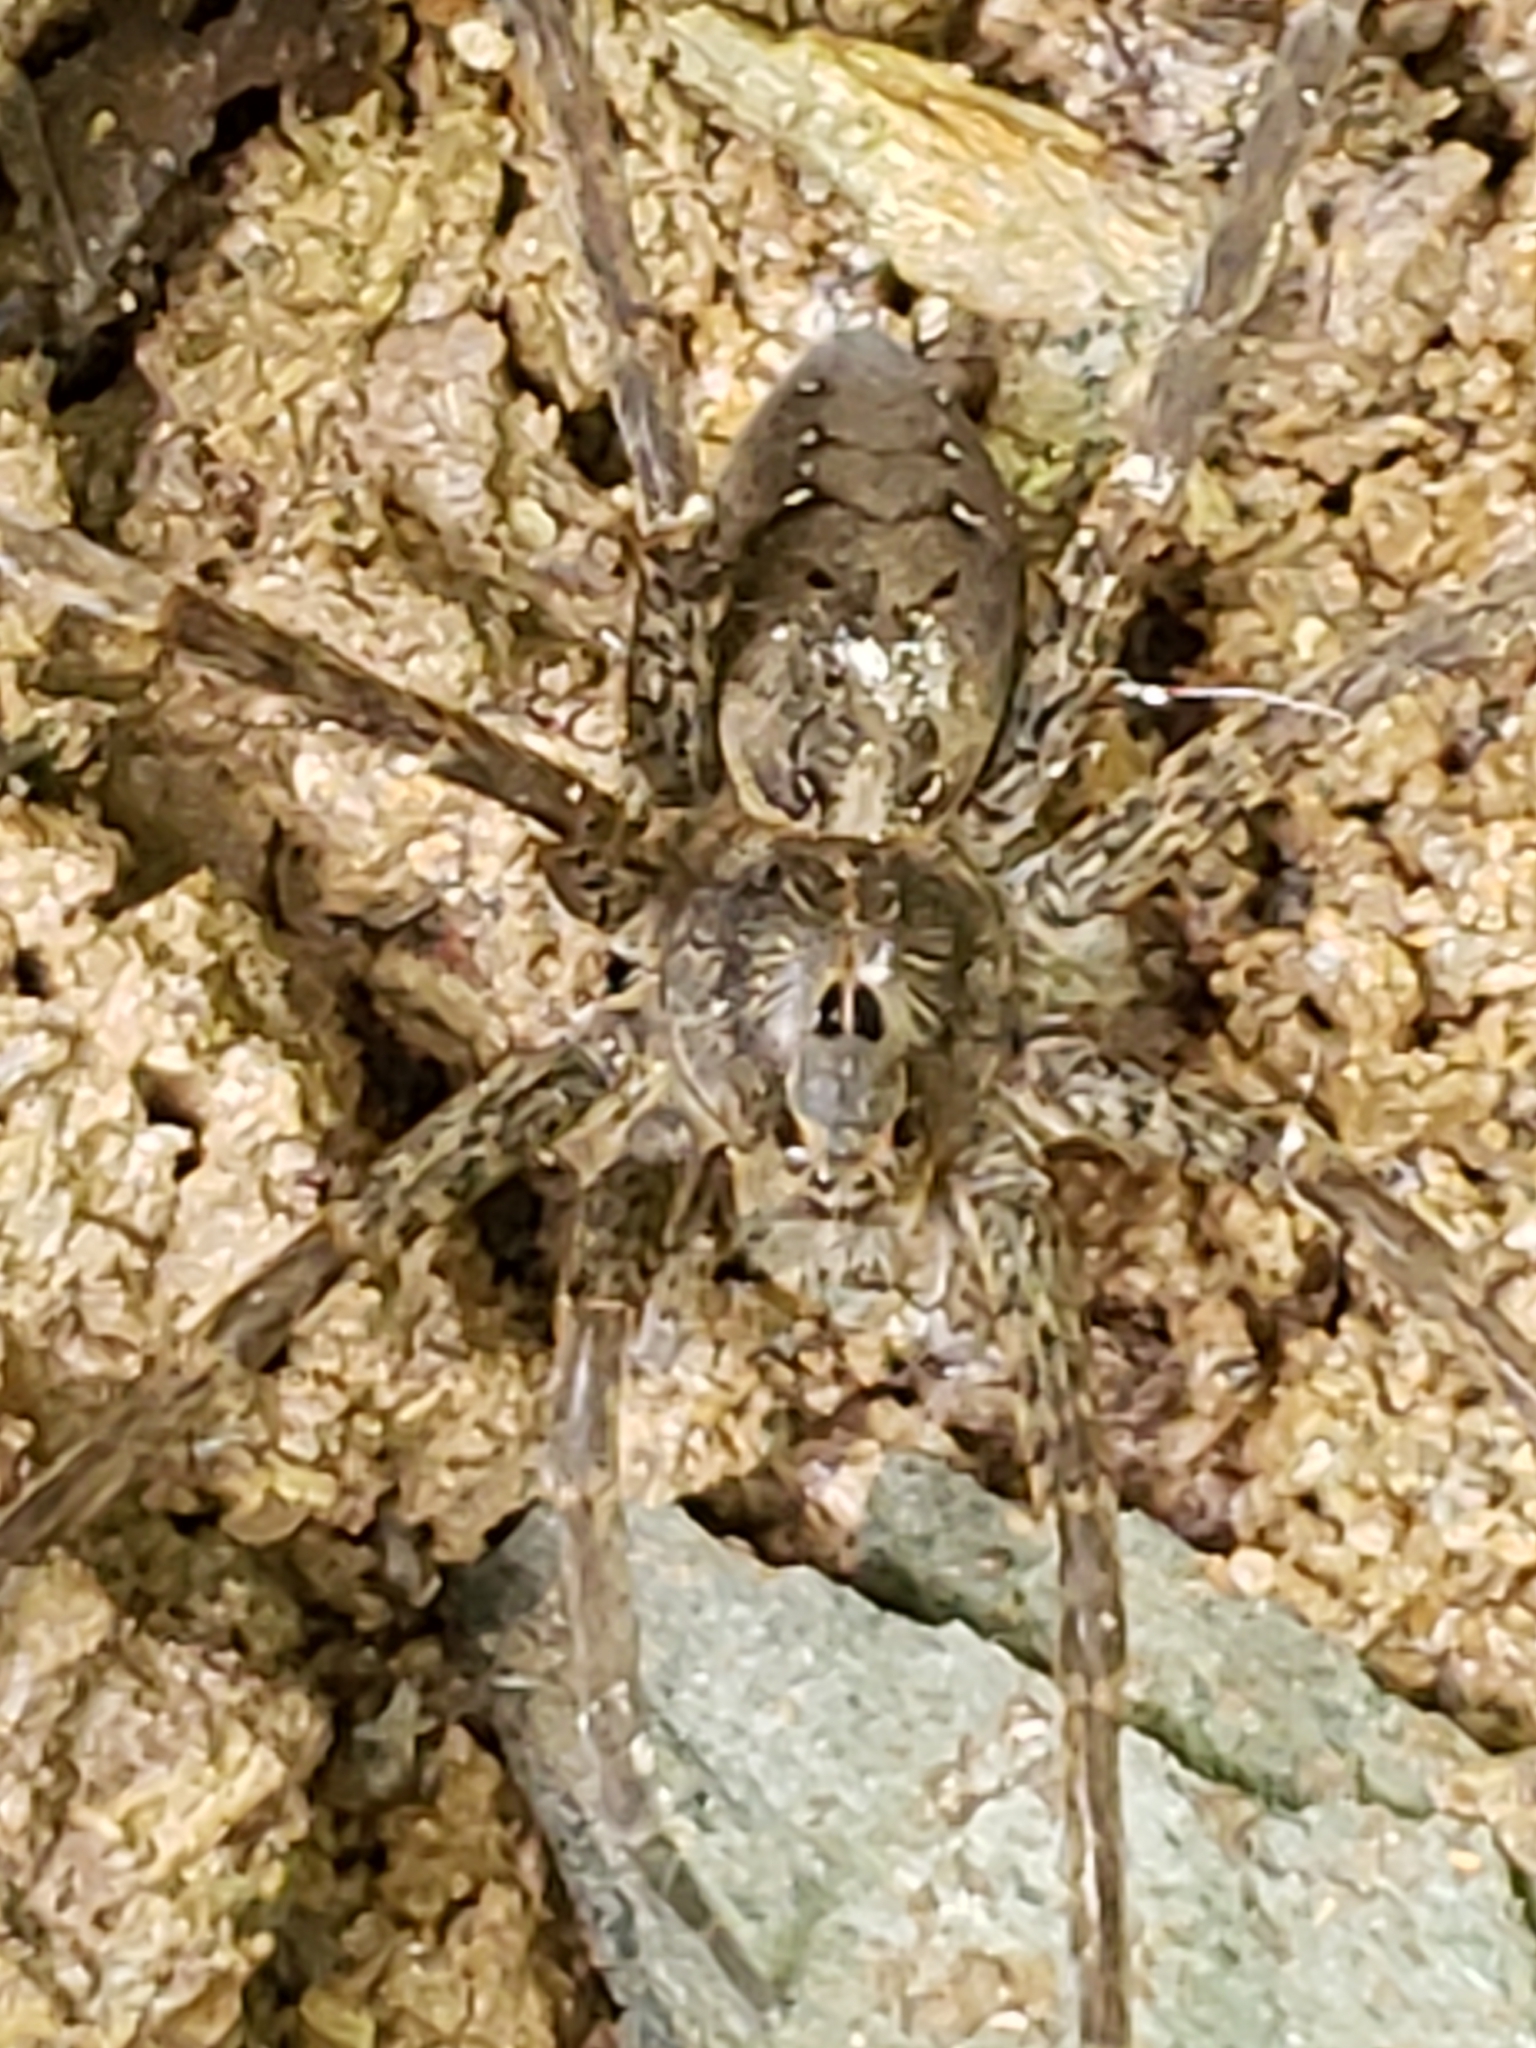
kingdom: Animalia
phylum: Arthropoda
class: Arachnida
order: Araneae
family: Pisauridae
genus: Dolomedes
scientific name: Dolomedes vittatus
